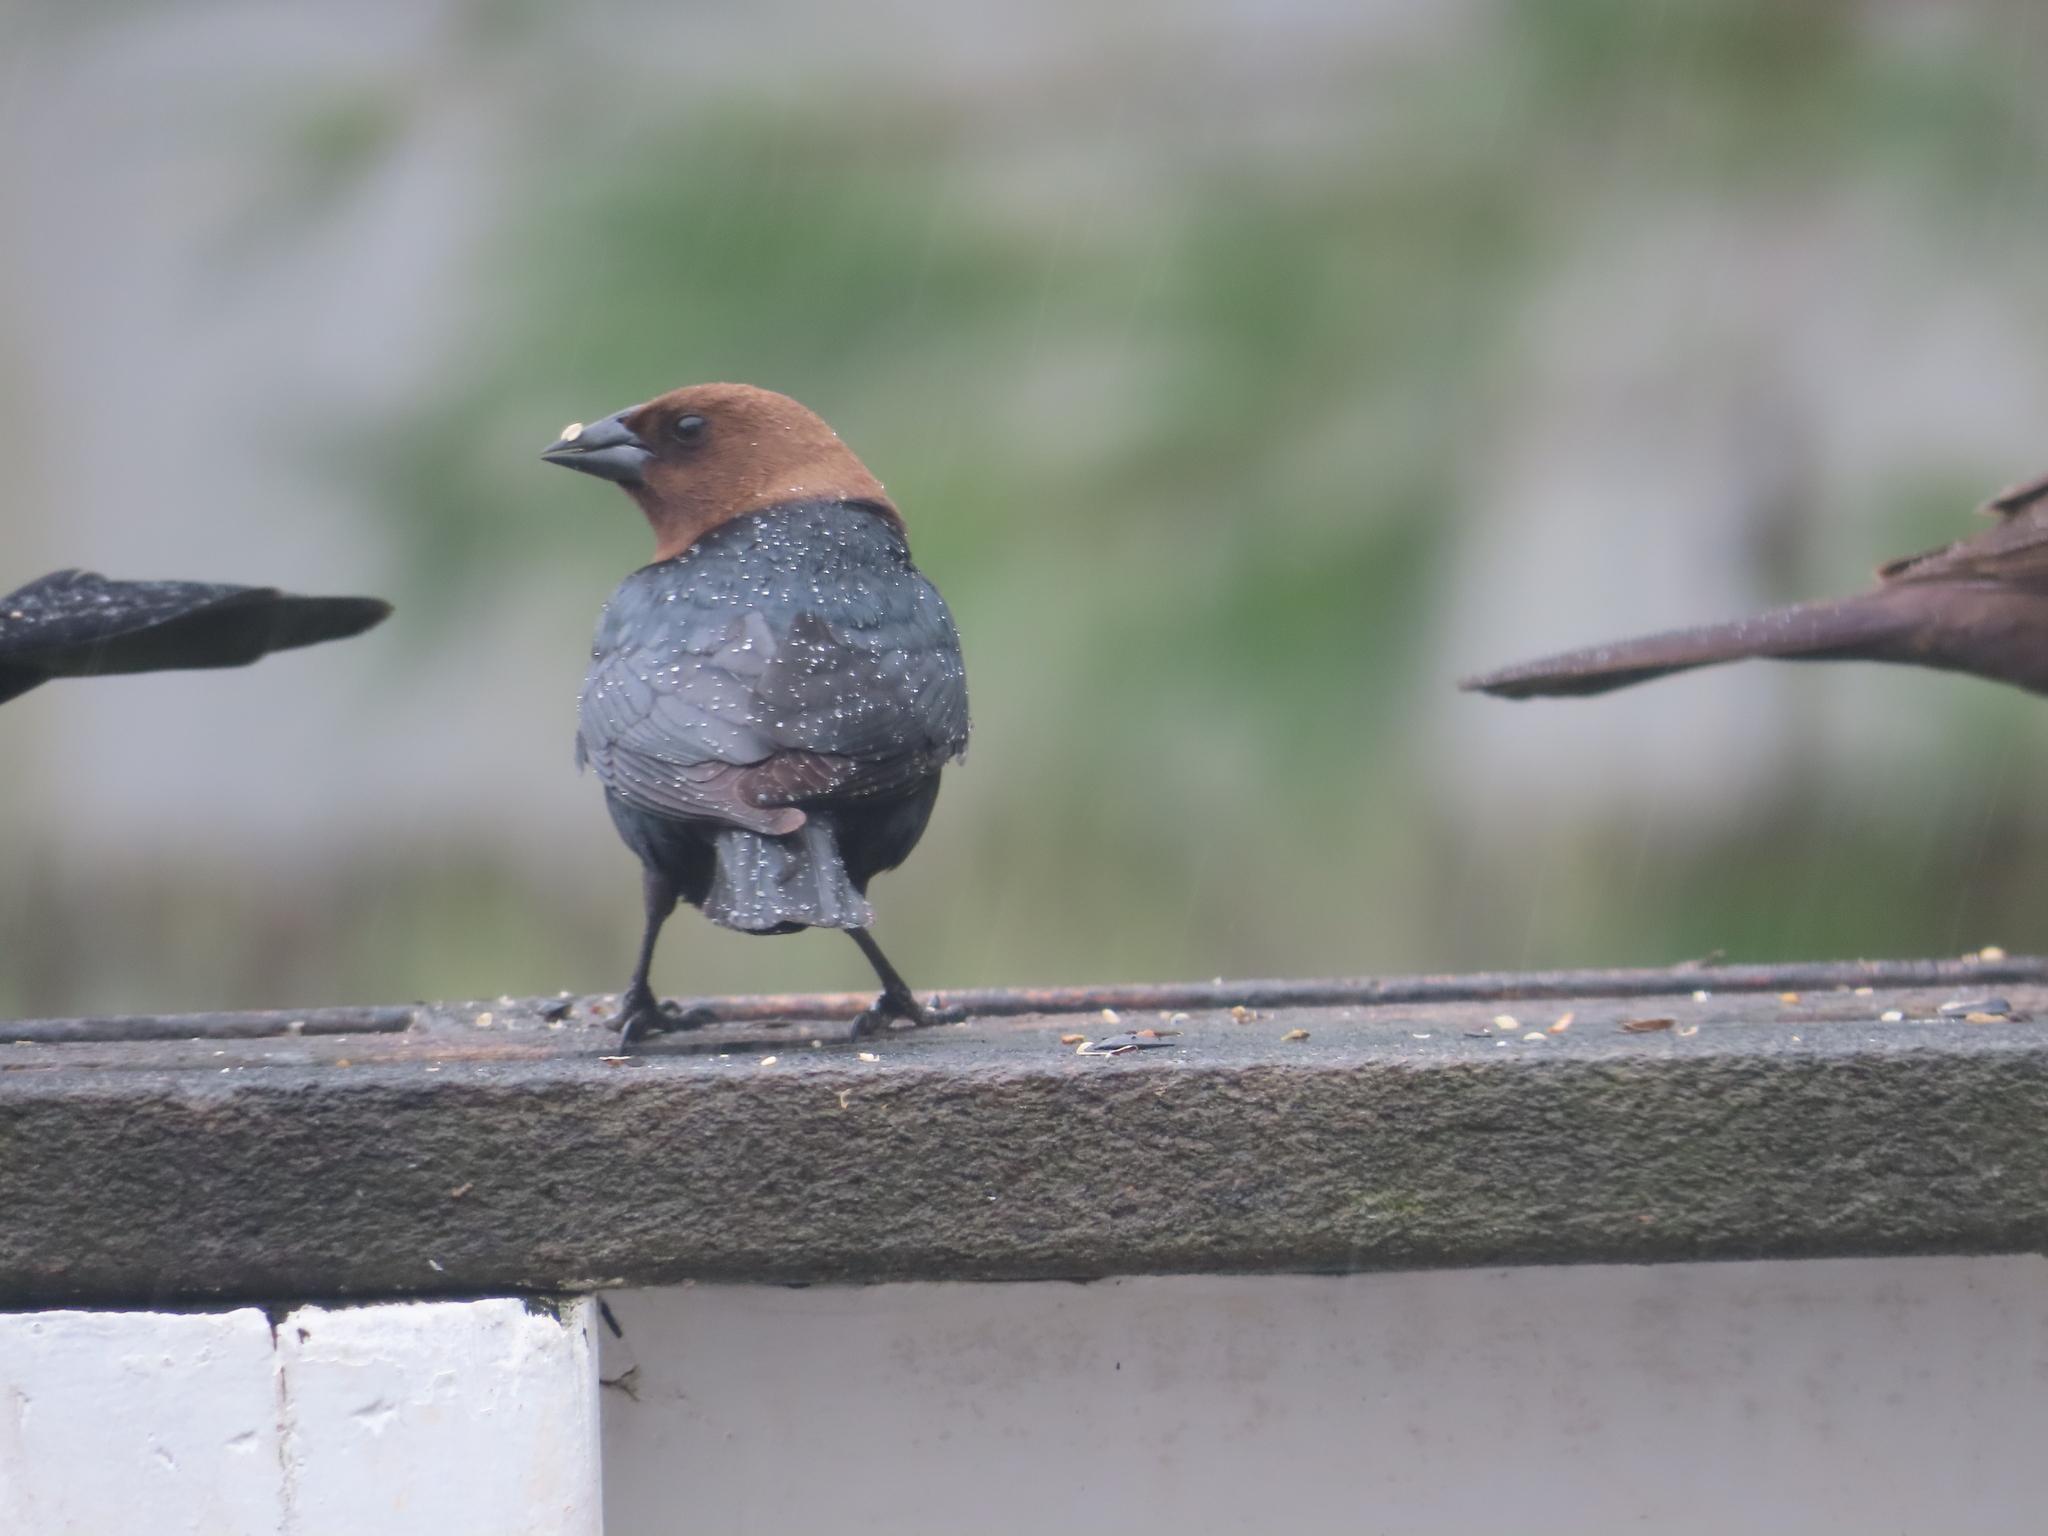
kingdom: Animalia
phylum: Chordata
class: Aves
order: Passeriformes
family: Icteridae
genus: Molothrus
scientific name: Molothrus ater
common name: Brown-headed cowbird
